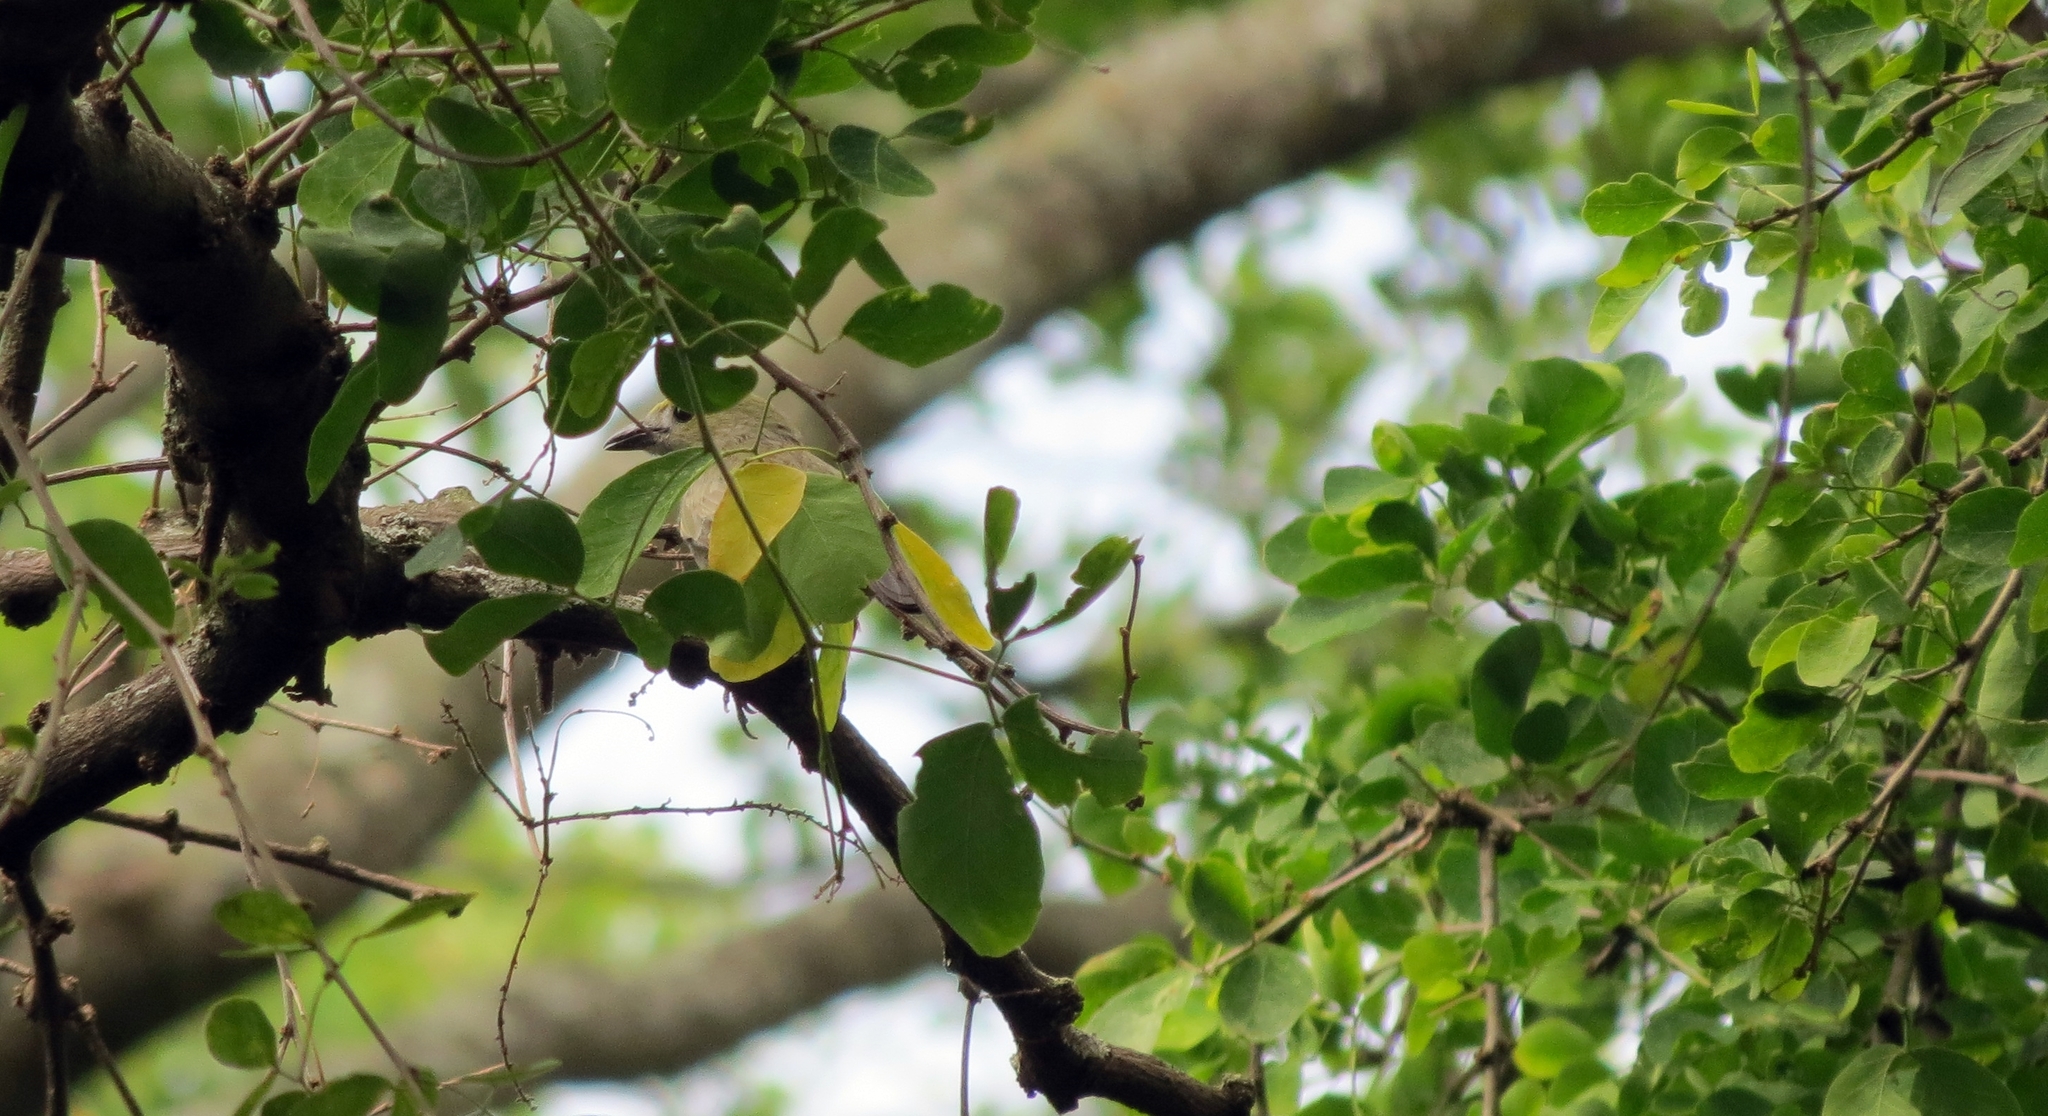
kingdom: Animalia
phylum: Chordata
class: Aves
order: Passeriformes
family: Thraupidae
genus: Thraupis
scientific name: Thraupis palmarum
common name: Palm tanager
